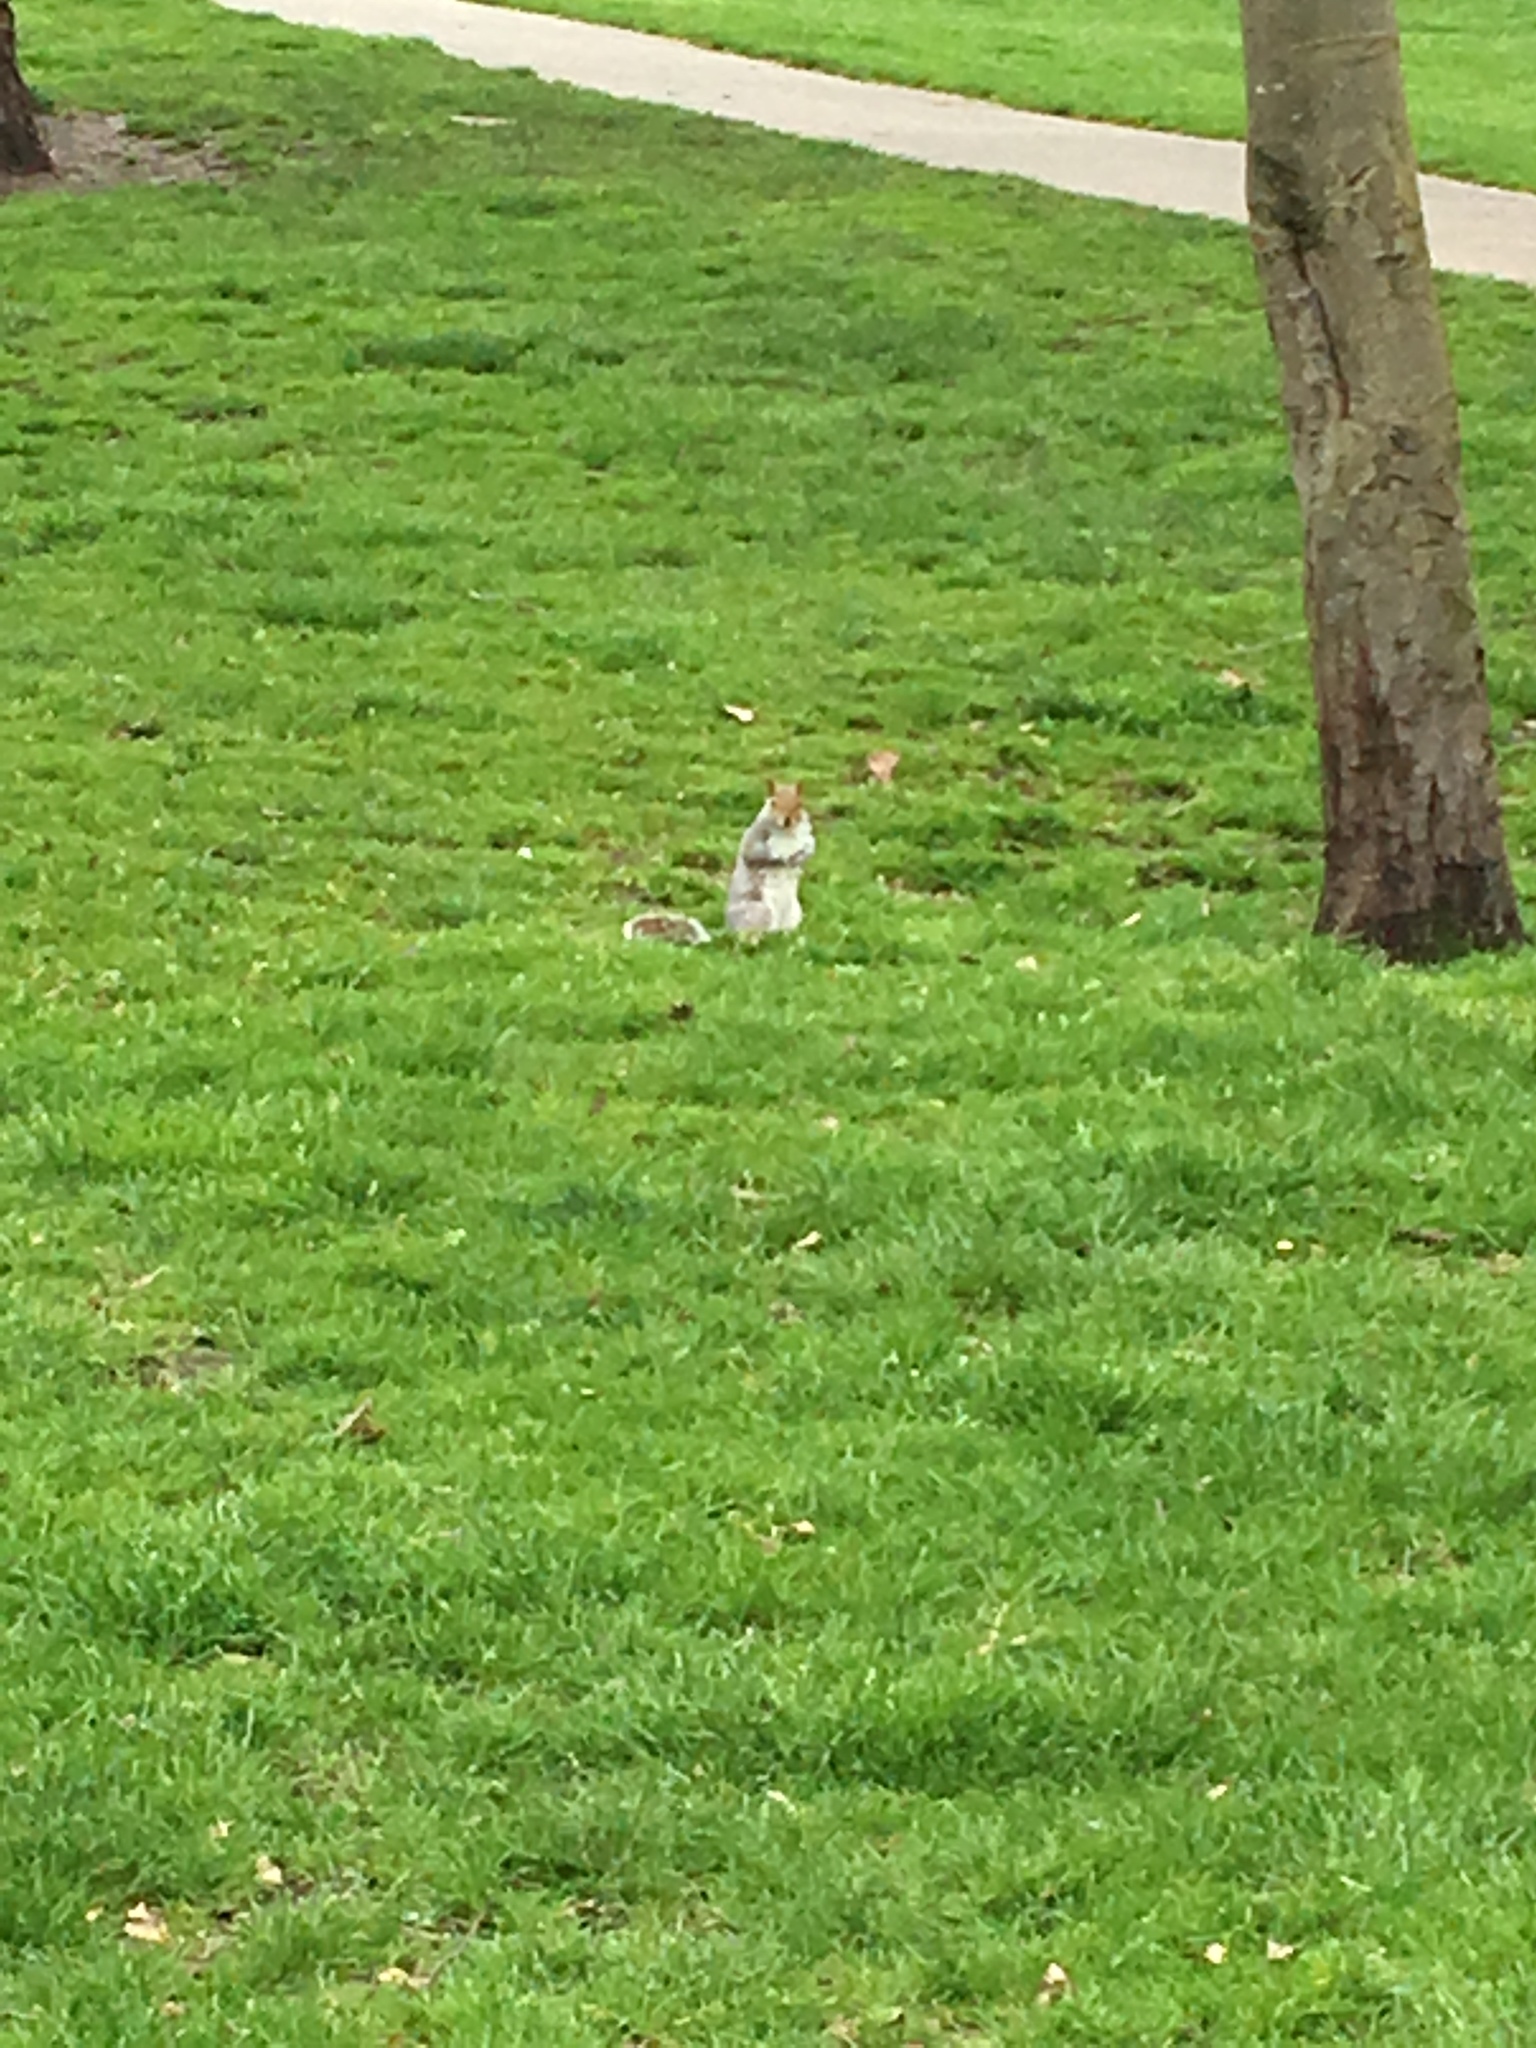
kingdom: Animalia
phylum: Chordata
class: Mammalia
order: Rodentia
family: Sciuridae
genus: Sciurus
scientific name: Sciurus carolinensis
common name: Eastern gray squirrel
